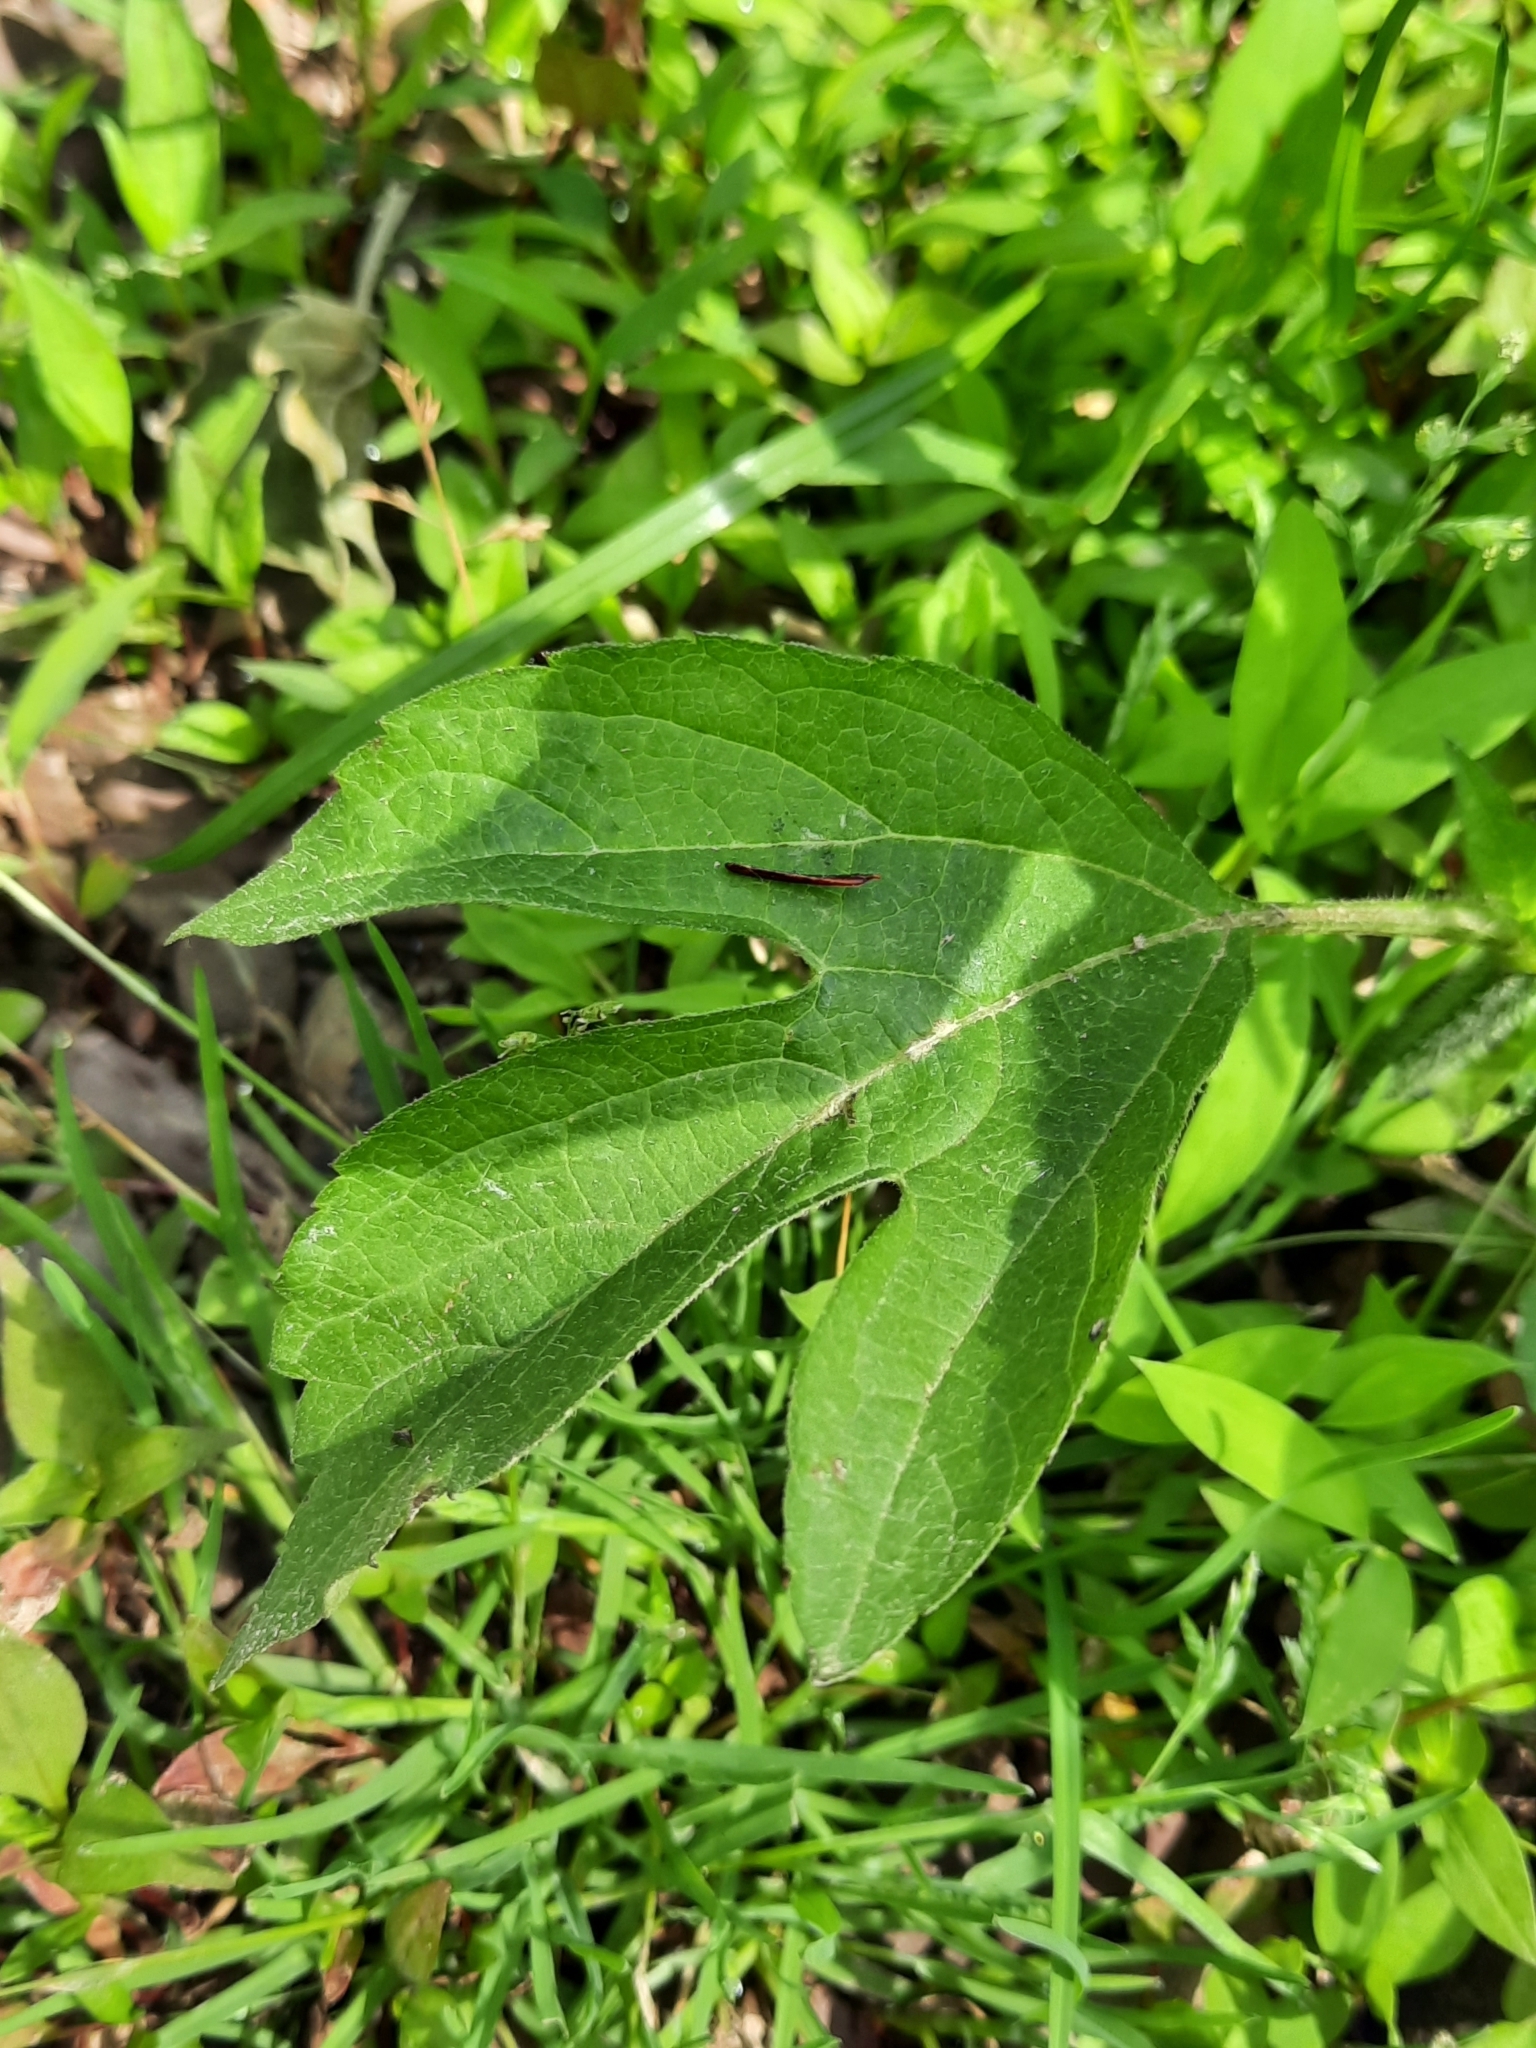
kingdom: Plantae
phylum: Tracheophyta
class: Magnoliopsida
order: Asterales
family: Asteraceae
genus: Ambrosia
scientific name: Ambrosia trifida
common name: Giant ragweed
